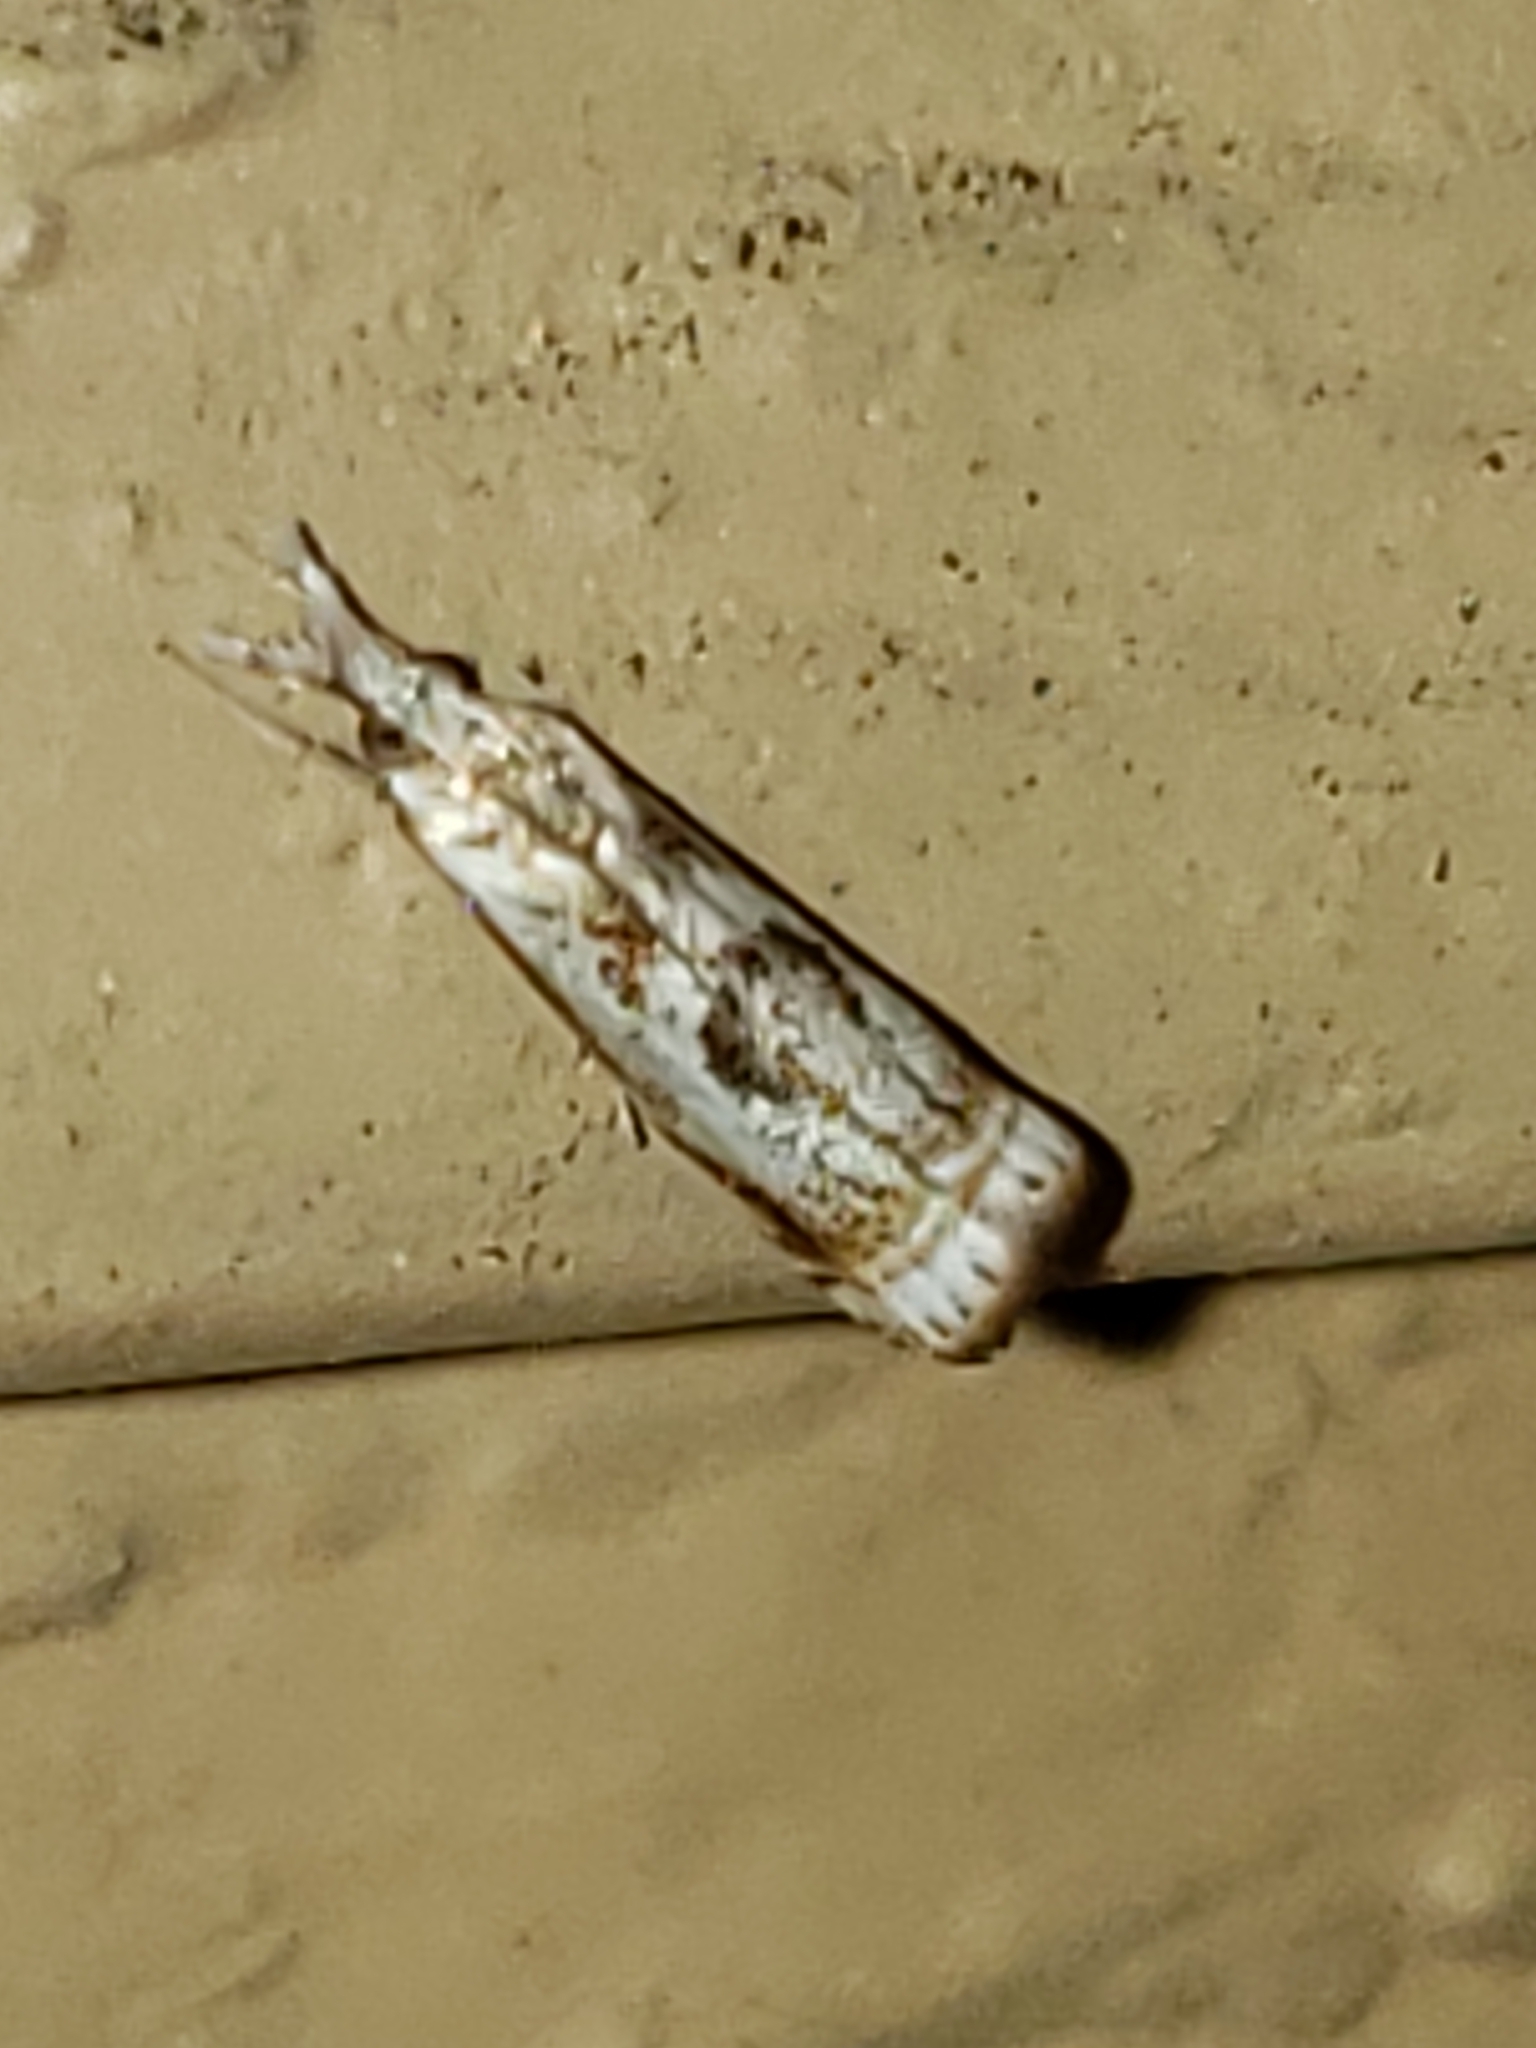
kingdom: Animalia
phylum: Arthropoda
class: Insecta
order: Lepidoptera
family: Crambidae
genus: Microcrambus
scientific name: Microcrambus elegans
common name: Elegant grass-veneer
